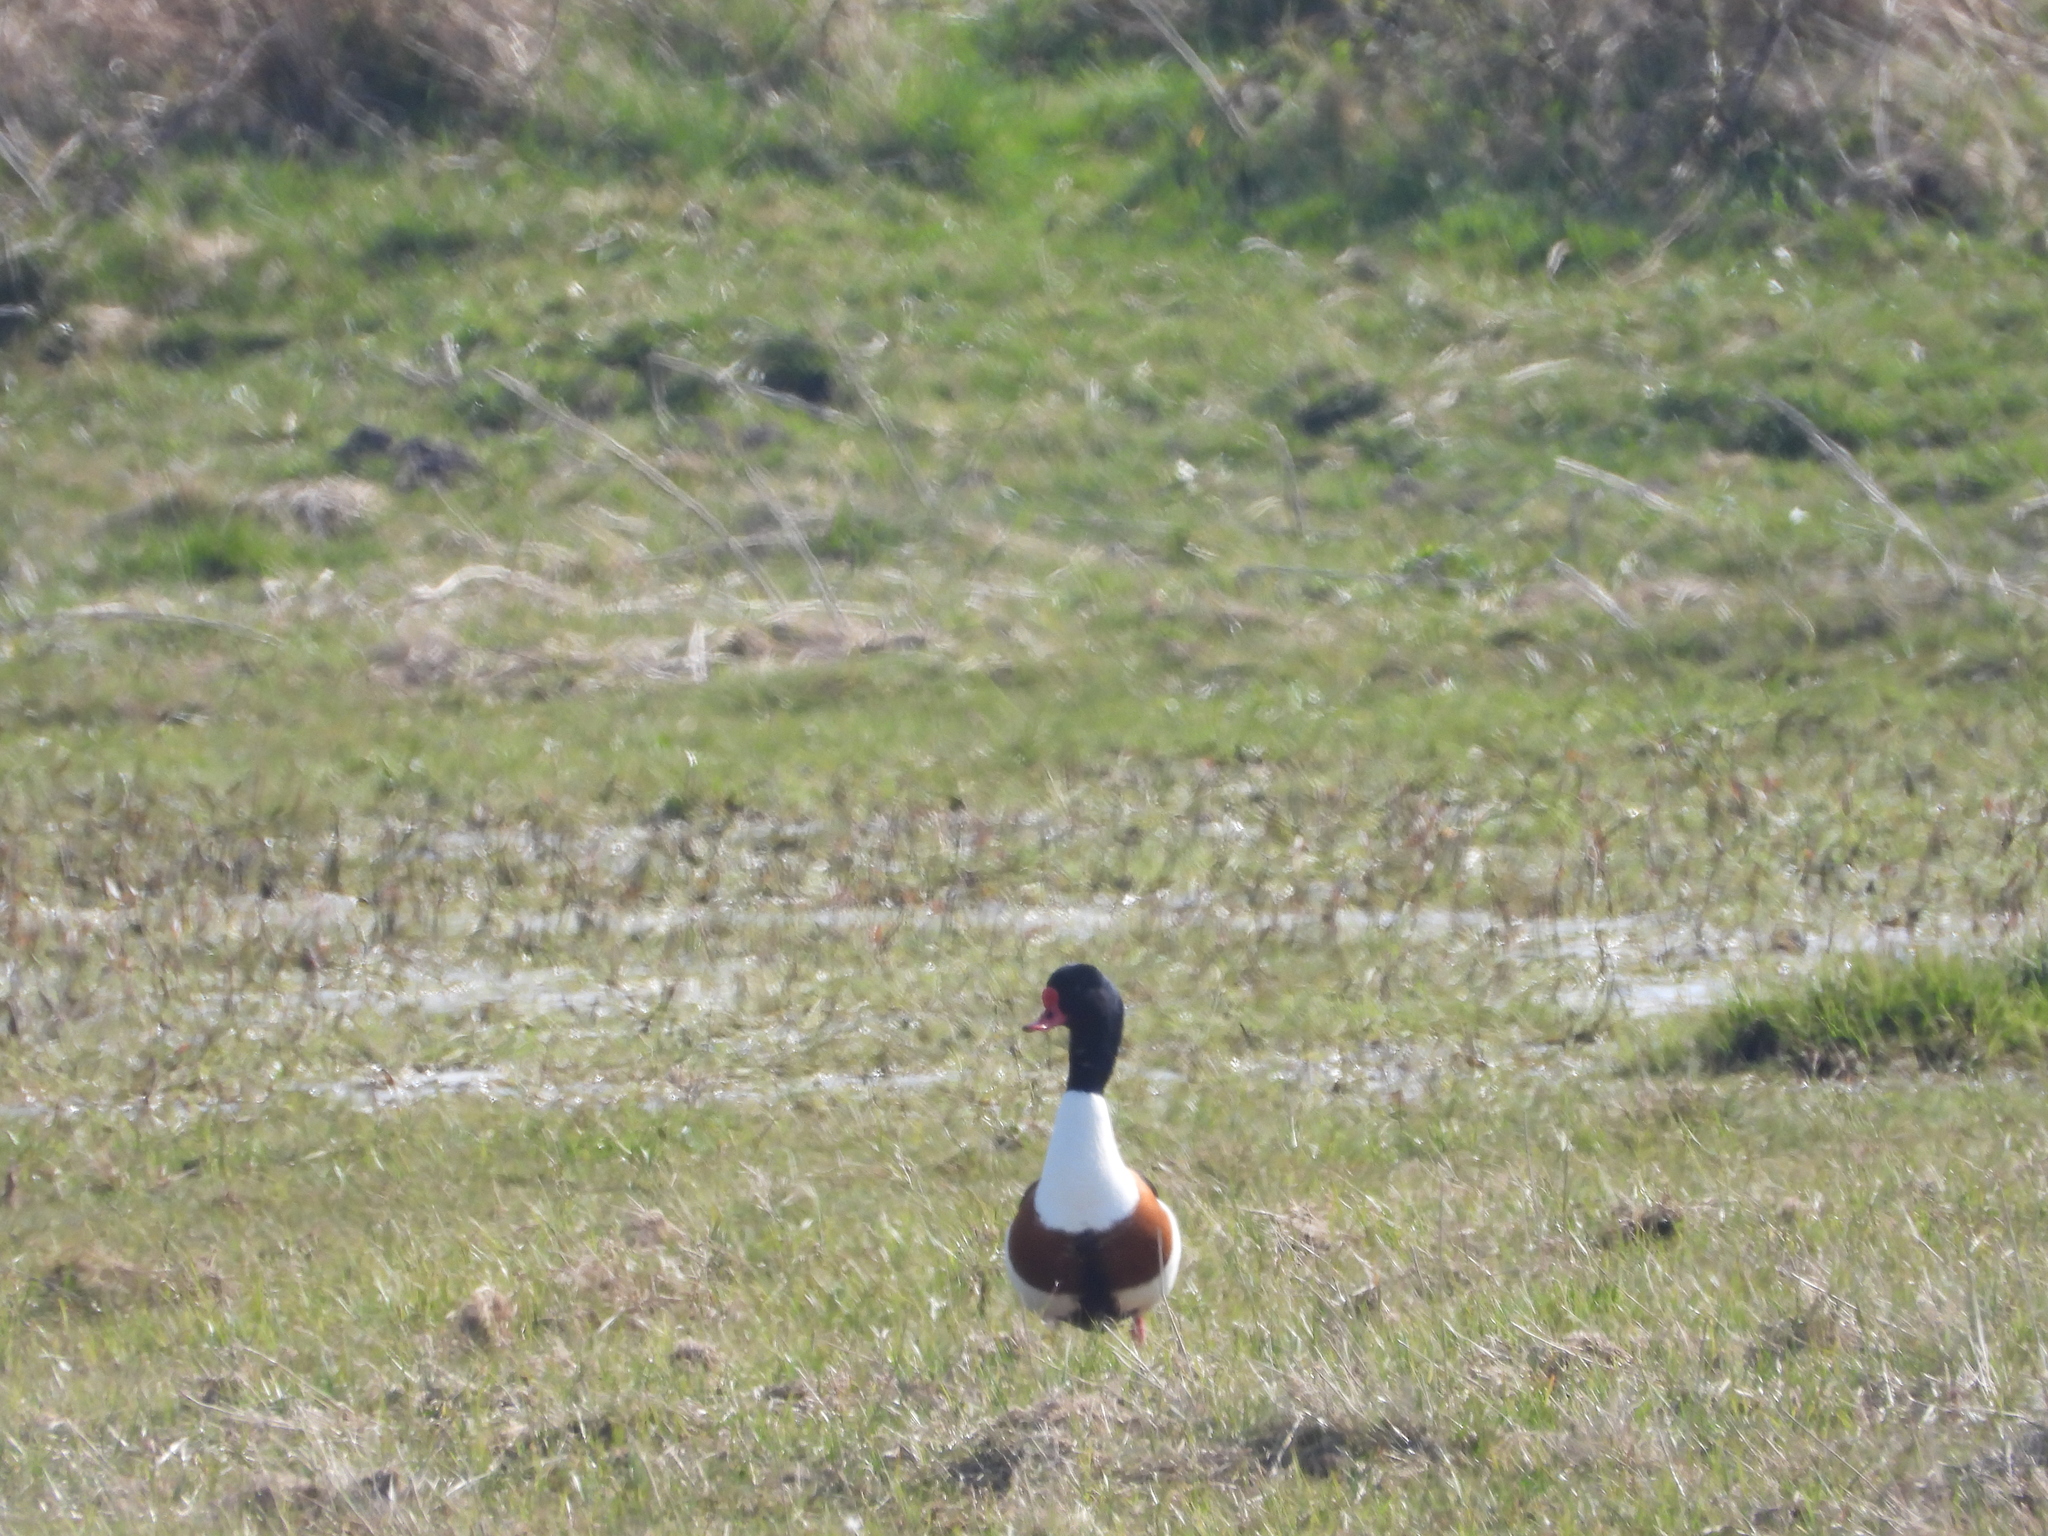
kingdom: Animalia
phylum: Chordata
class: Aves
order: Anseriformes
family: Anatidae
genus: Tadorna
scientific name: Tadorna tadorna
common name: Common shelduck
